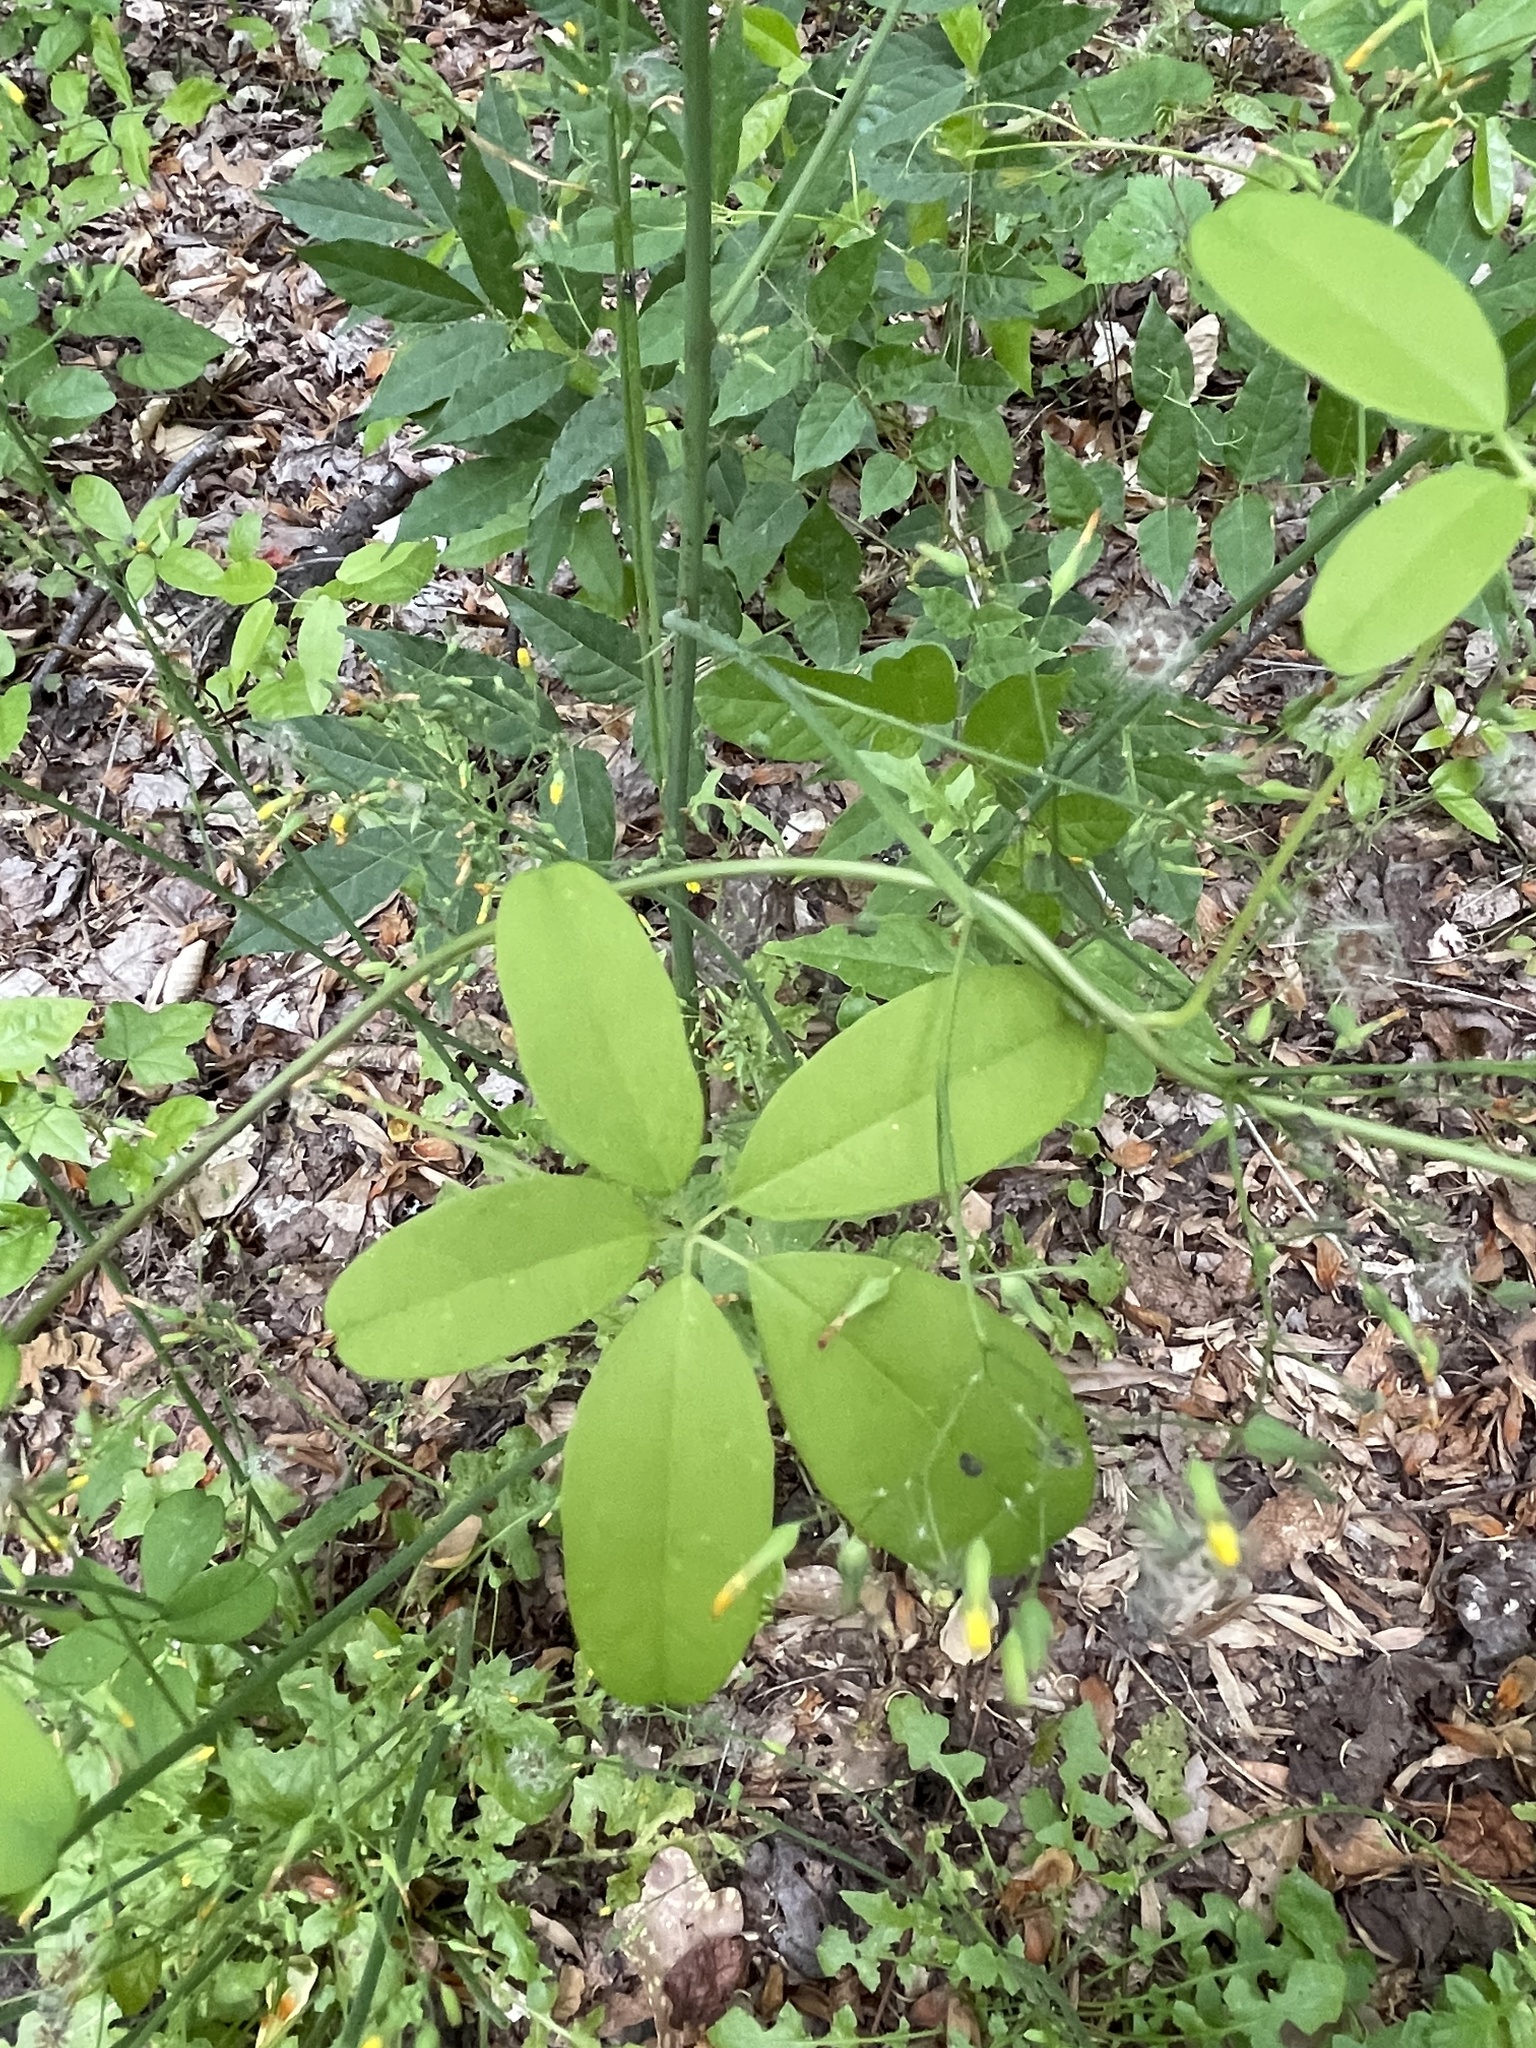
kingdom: Plantae
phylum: Tracheophyta
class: Magnoliopsida
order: Ranunculales
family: Lardizabalaceae
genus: Akebia
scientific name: Akebia quinata
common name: Five-leaf akebia
